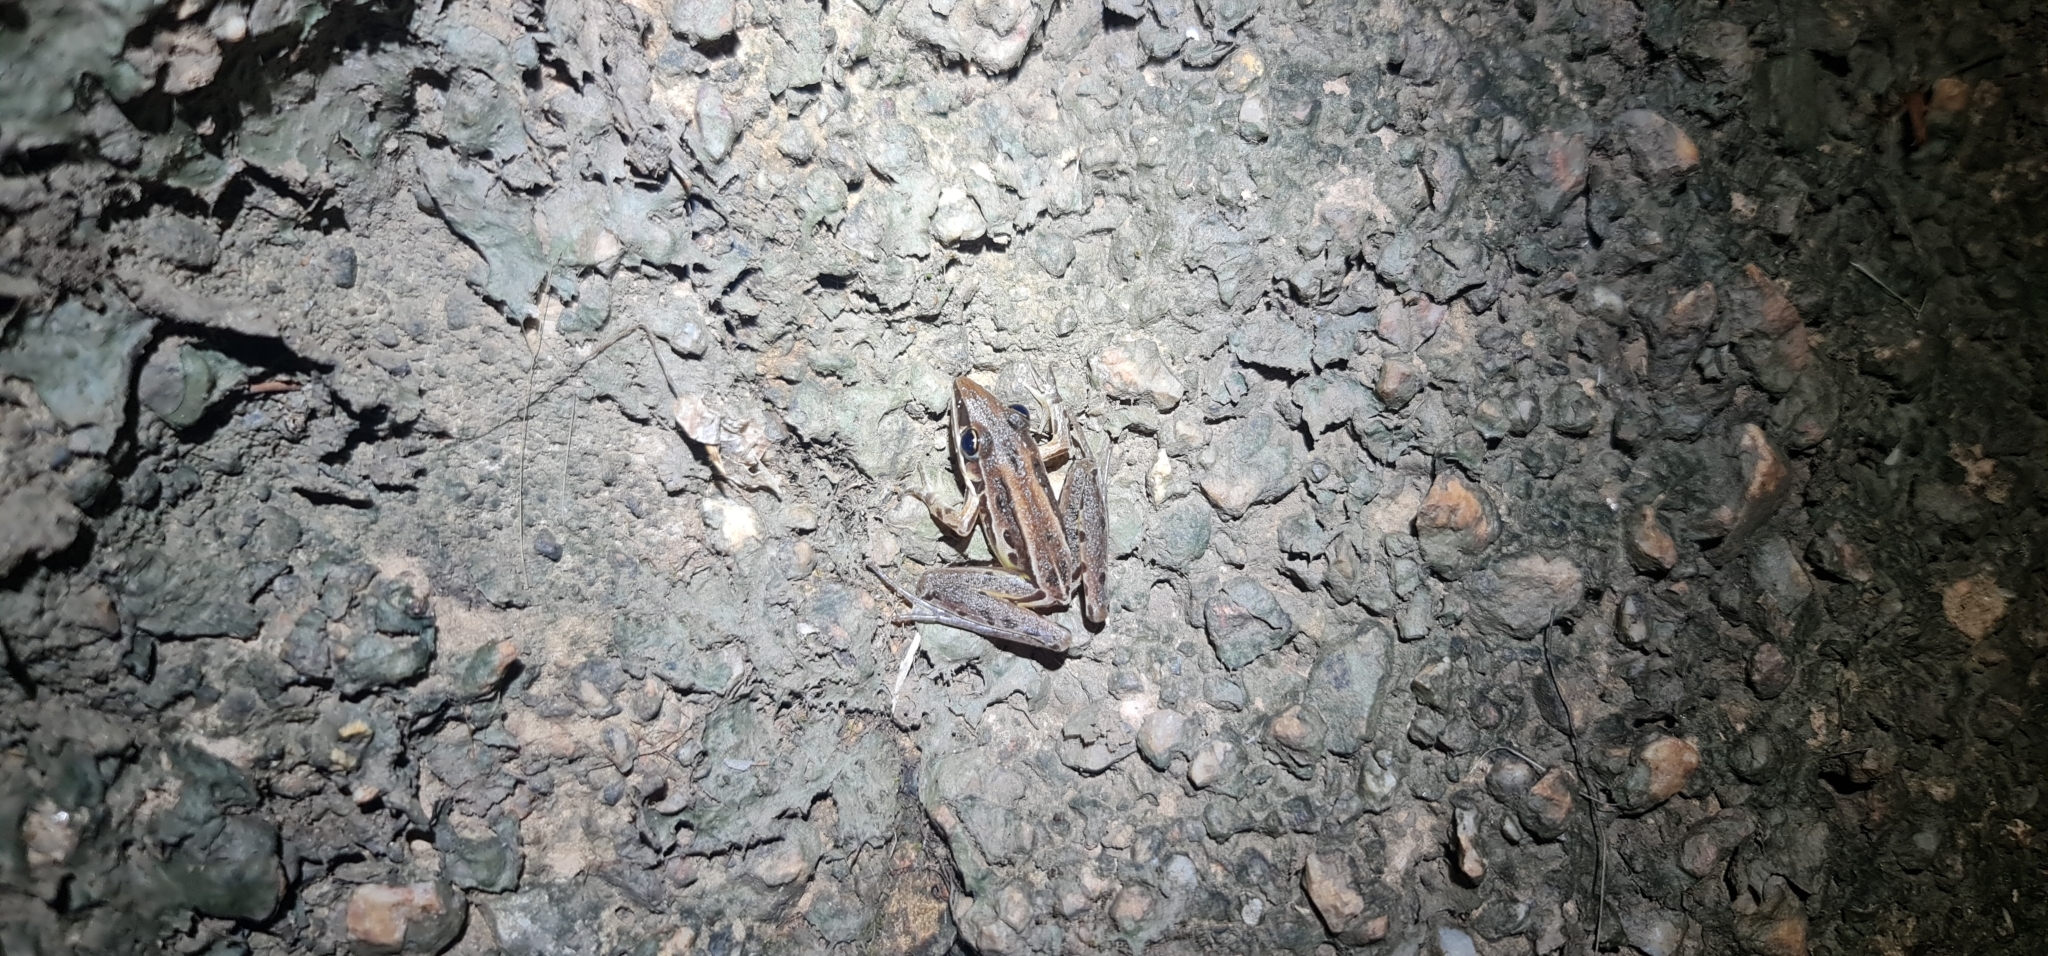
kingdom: Animalia
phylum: Chordata
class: Amphibia
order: Anura
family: Pelodryadidae
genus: Litoria
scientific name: Litoria nasuta
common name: Rocket frog
